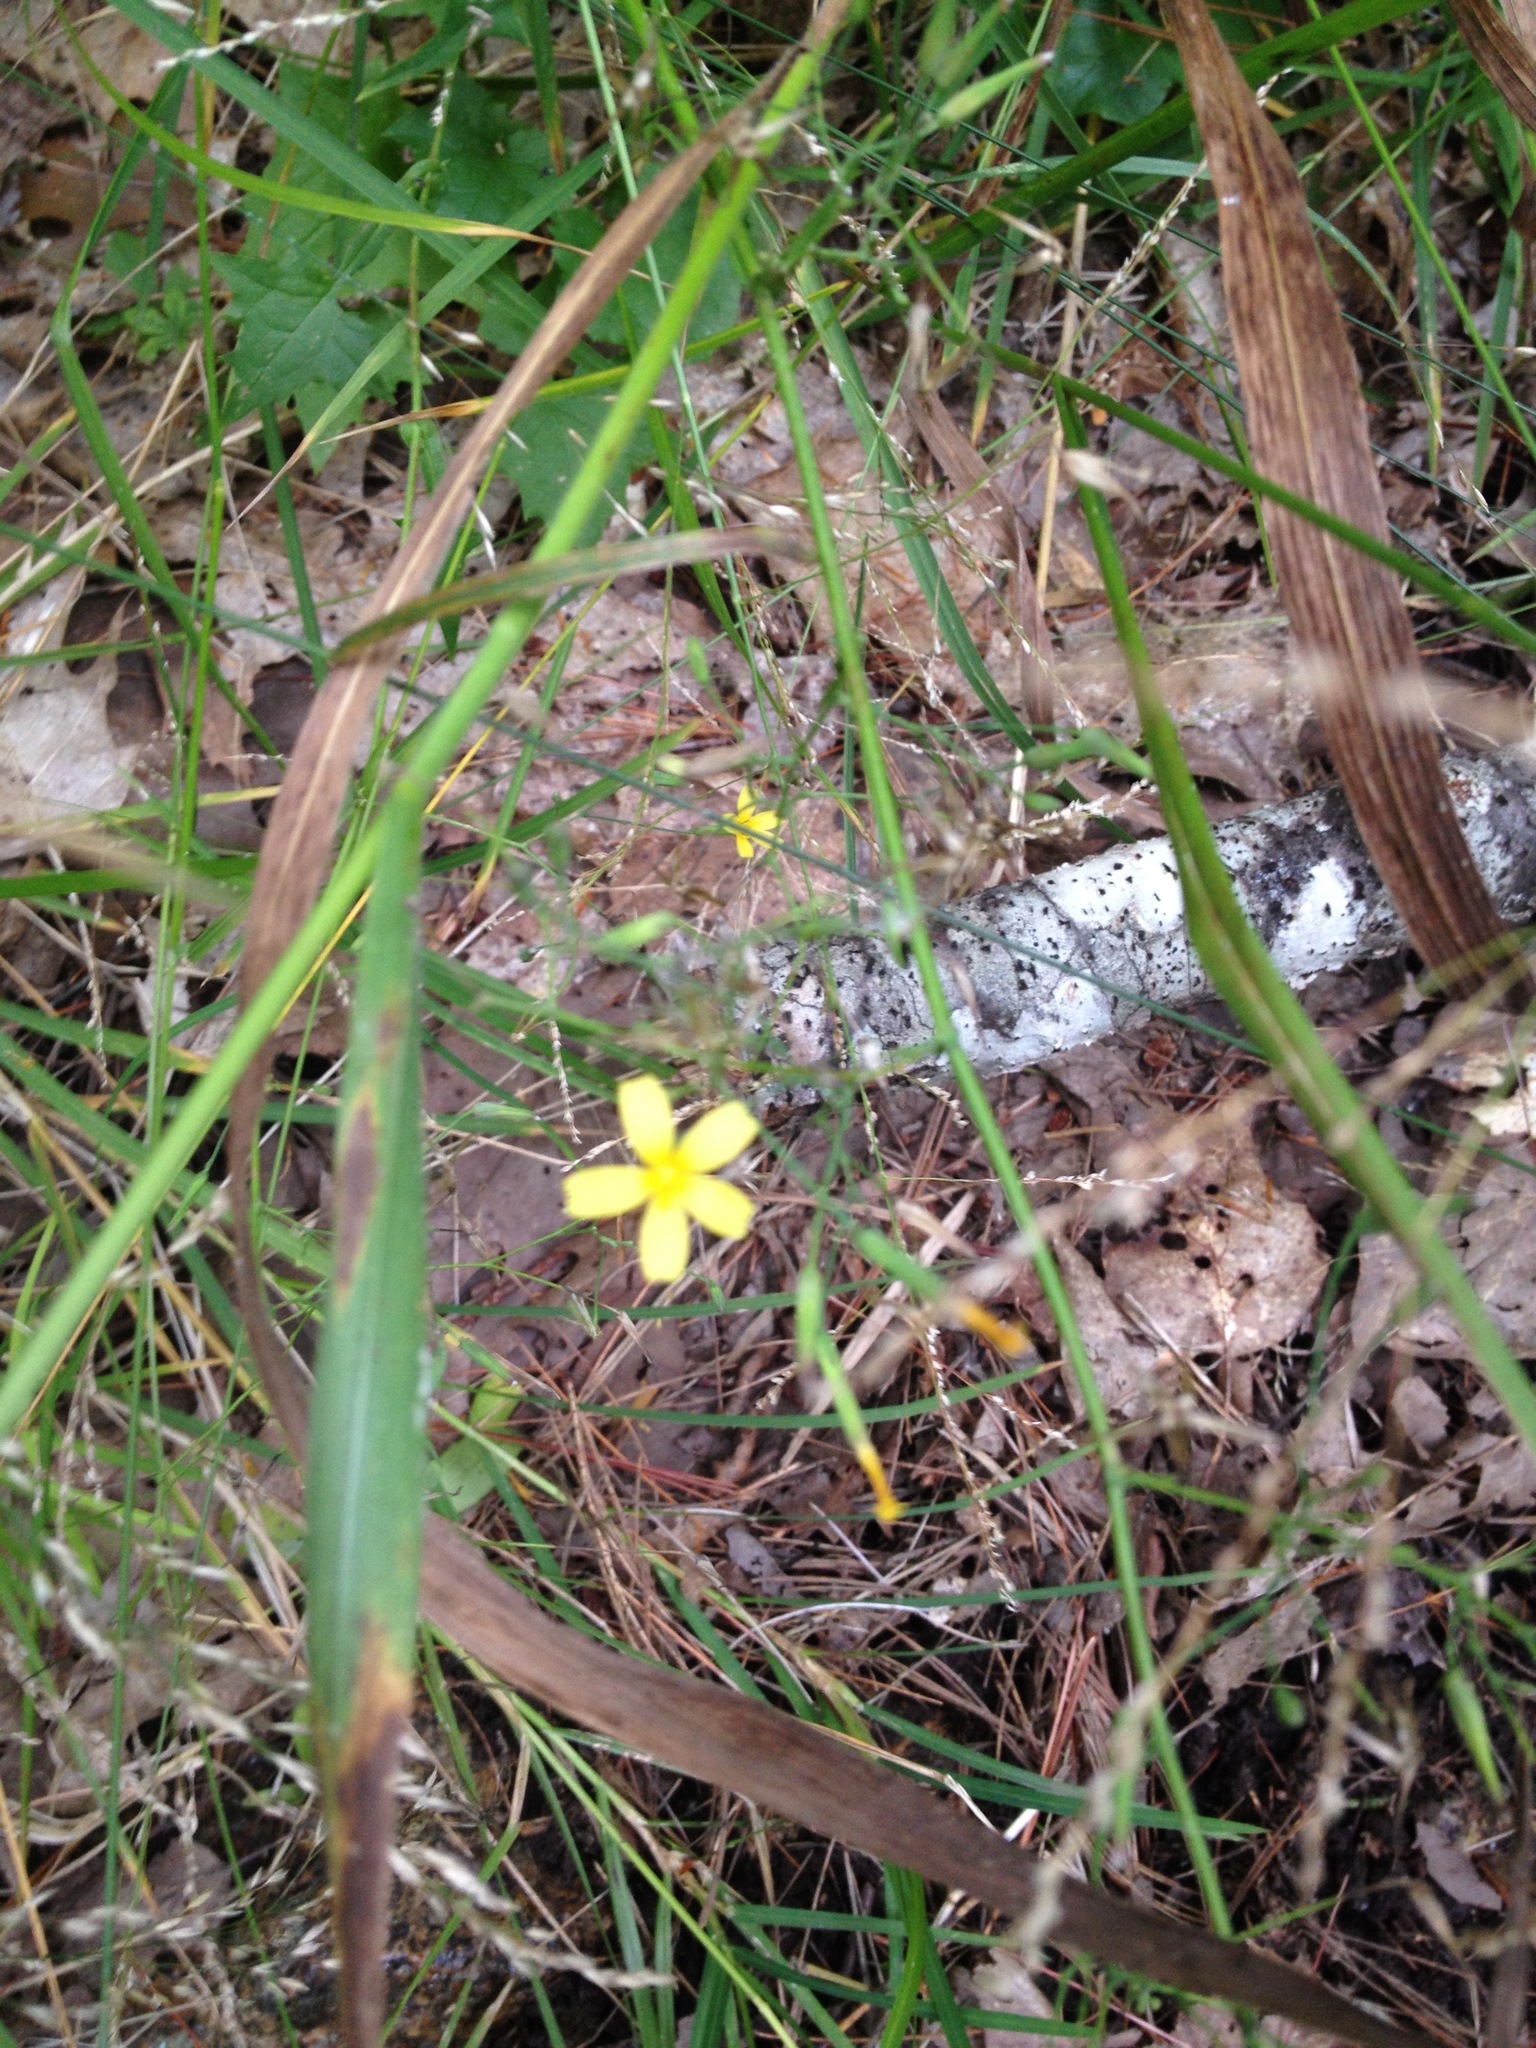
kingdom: Plantae
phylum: Tracheophyta
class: Magnoliopsida
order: Asterales
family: Asteraceae
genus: Mycelis
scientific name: Mycelis muralis
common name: Wall lettuce
